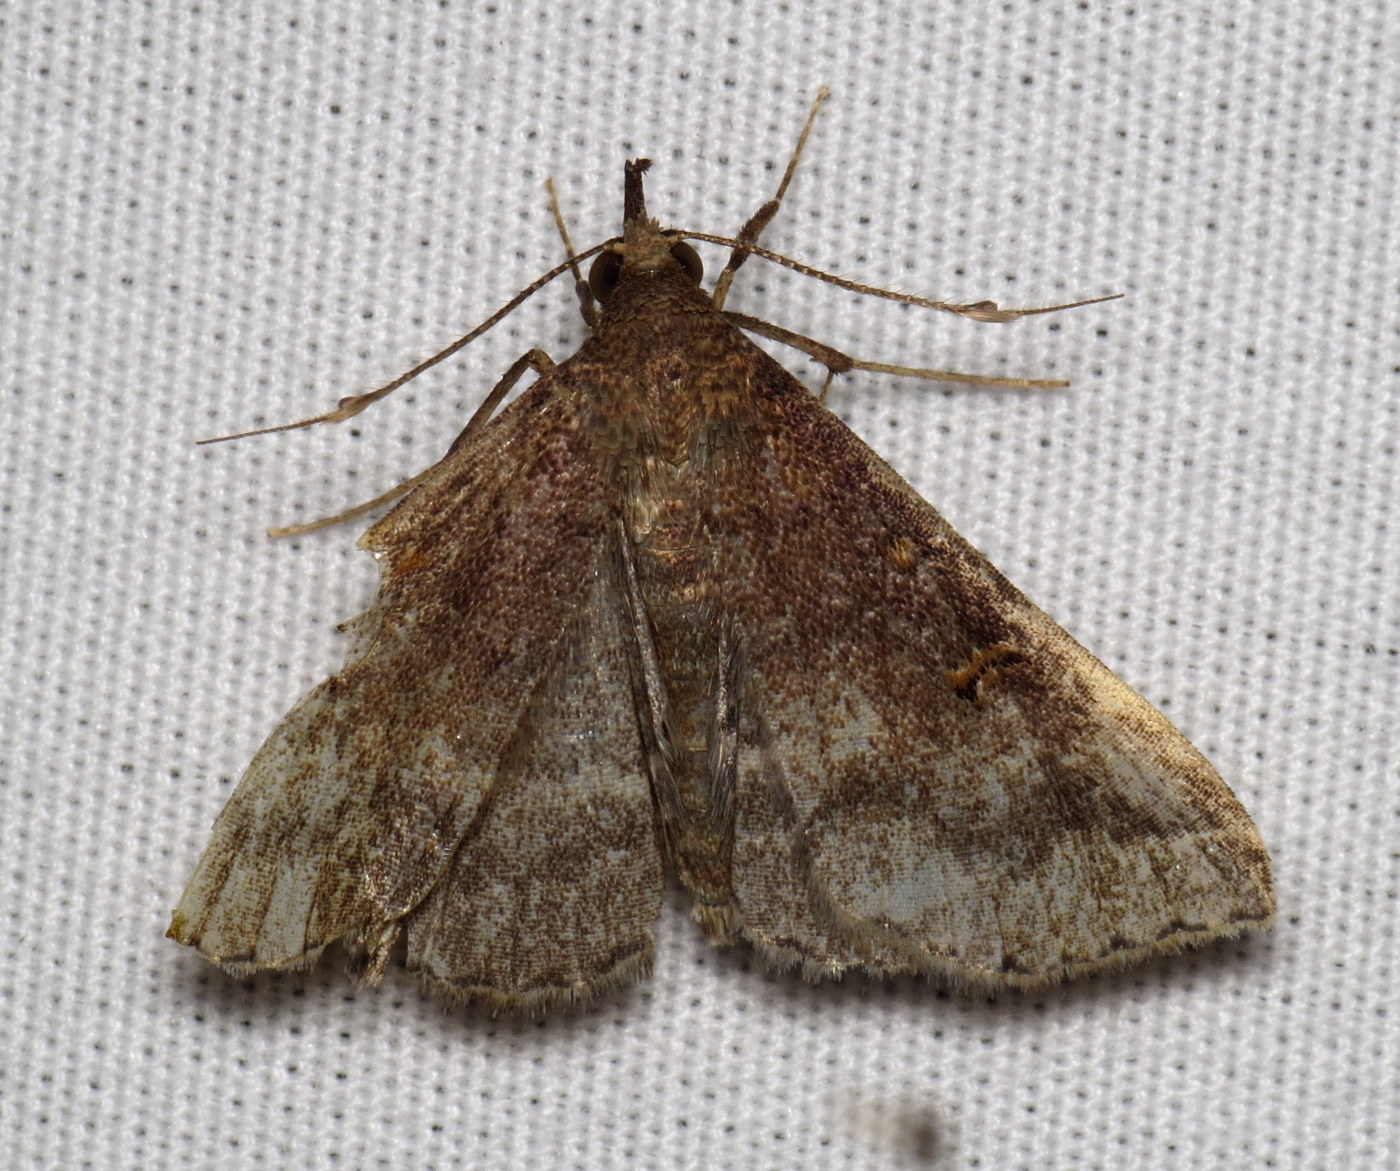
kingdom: Animalia
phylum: Arthropoda
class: Insecta
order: Lepidoptera
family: Erebidae
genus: Renia
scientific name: Renia factiosalis
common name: Sociable renia moth
